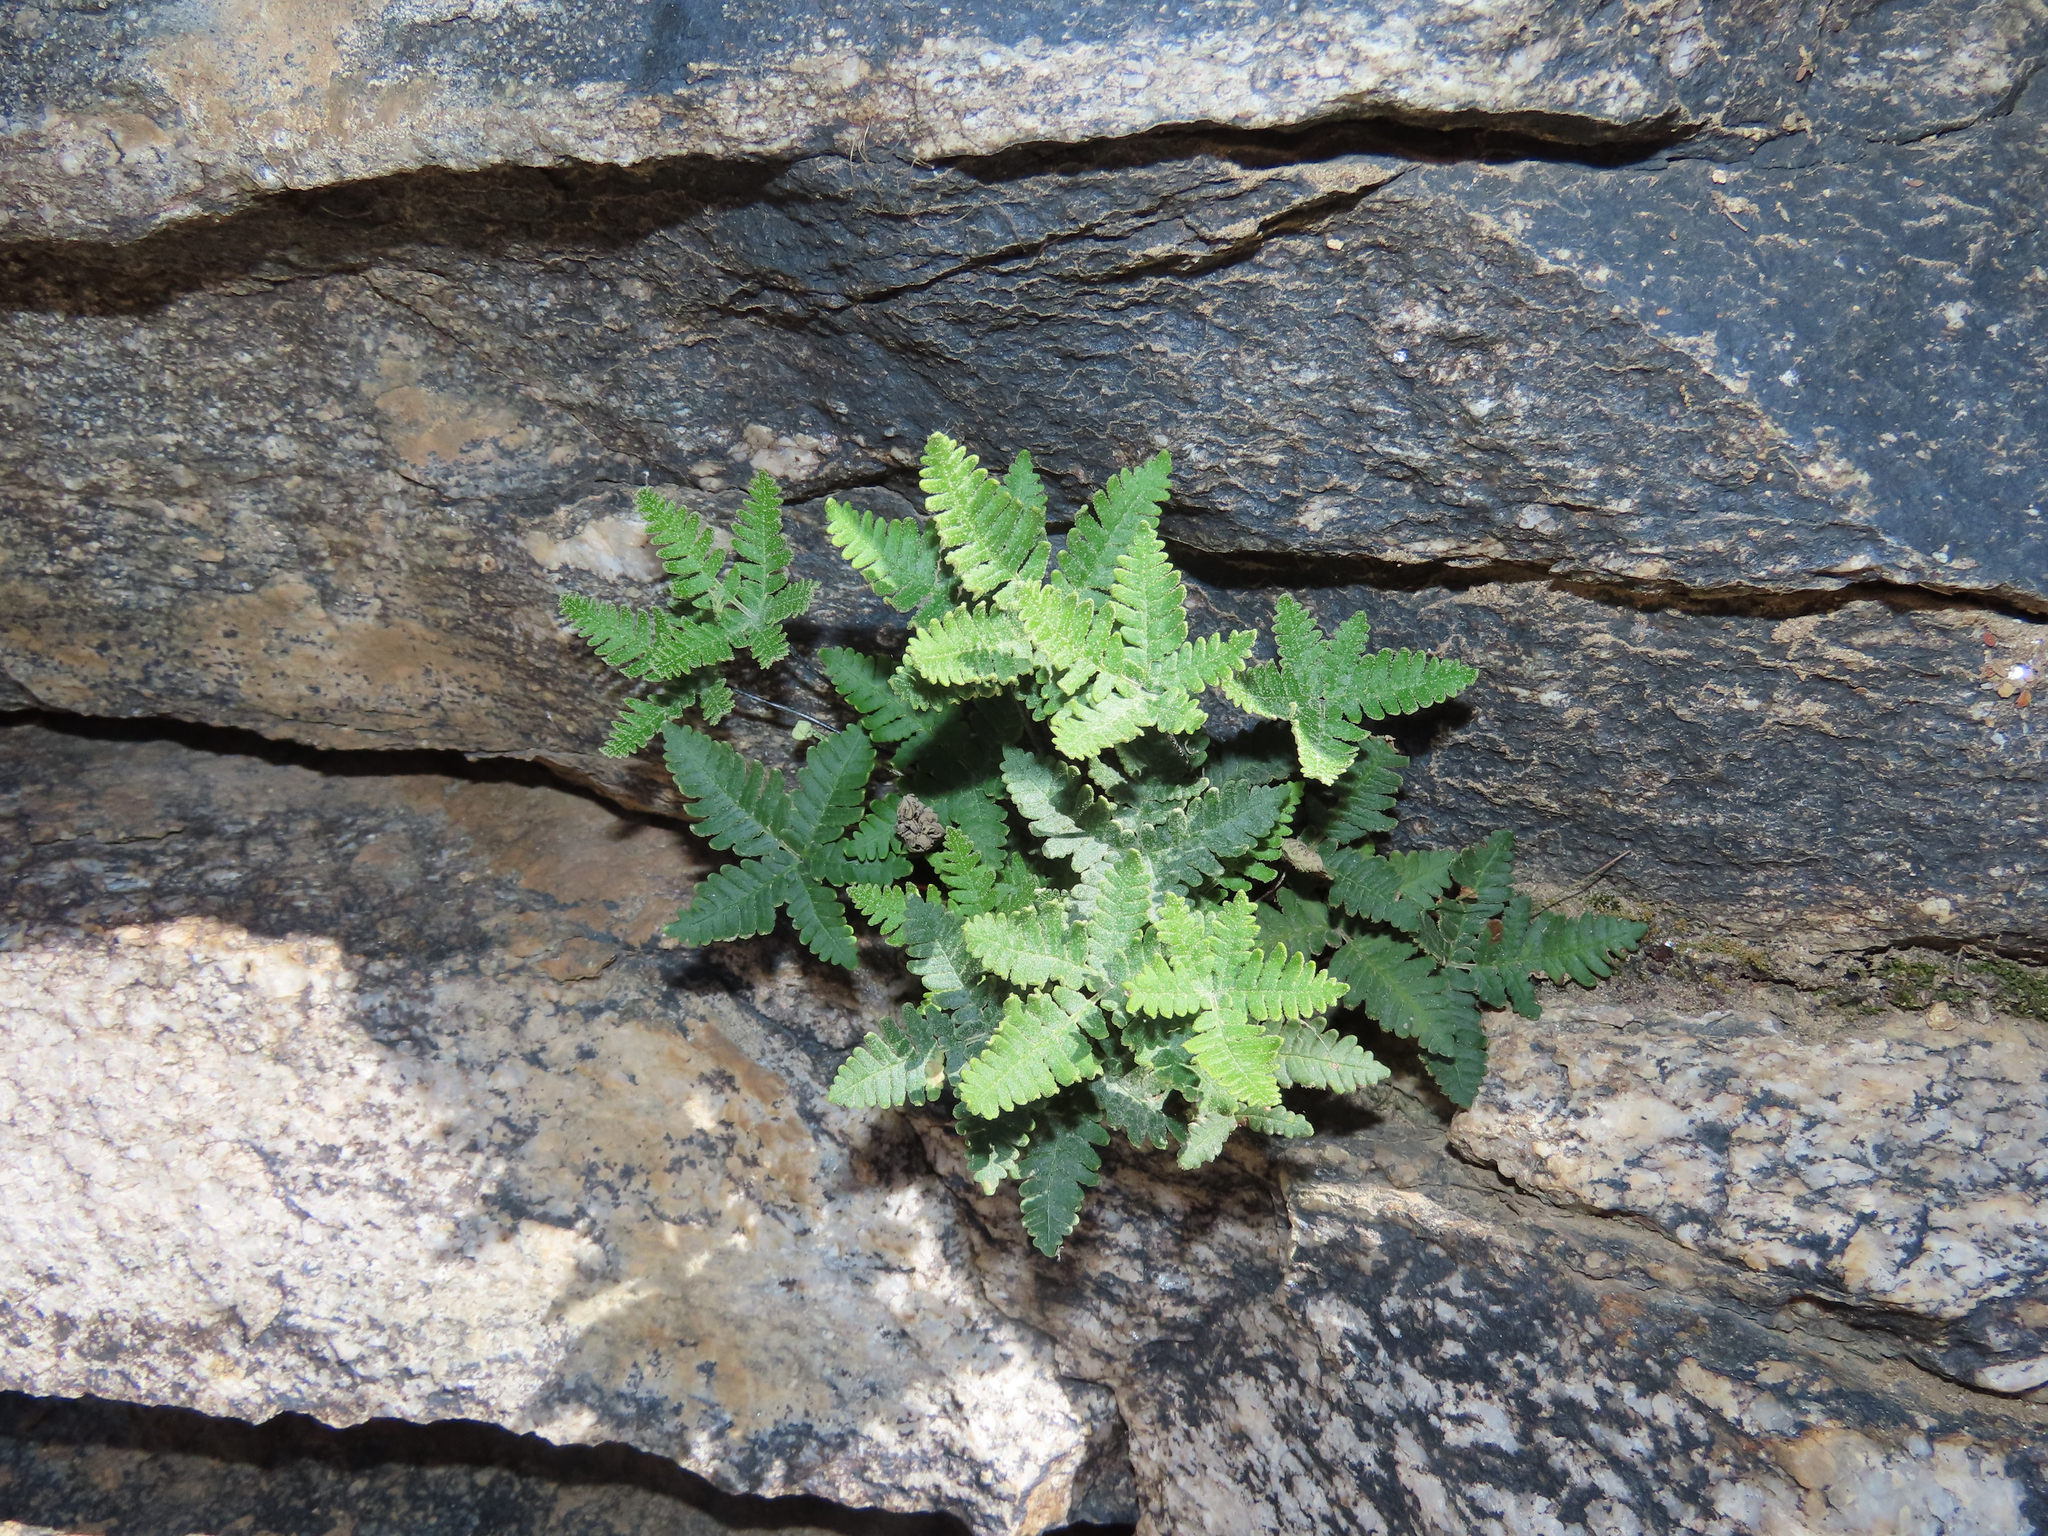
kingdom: Plantae
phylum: Tracheophyta
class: Polypodiopsida
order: Polypodiales
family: Pteridaceae
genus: Notholaena
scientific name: Notholaena standleyi
